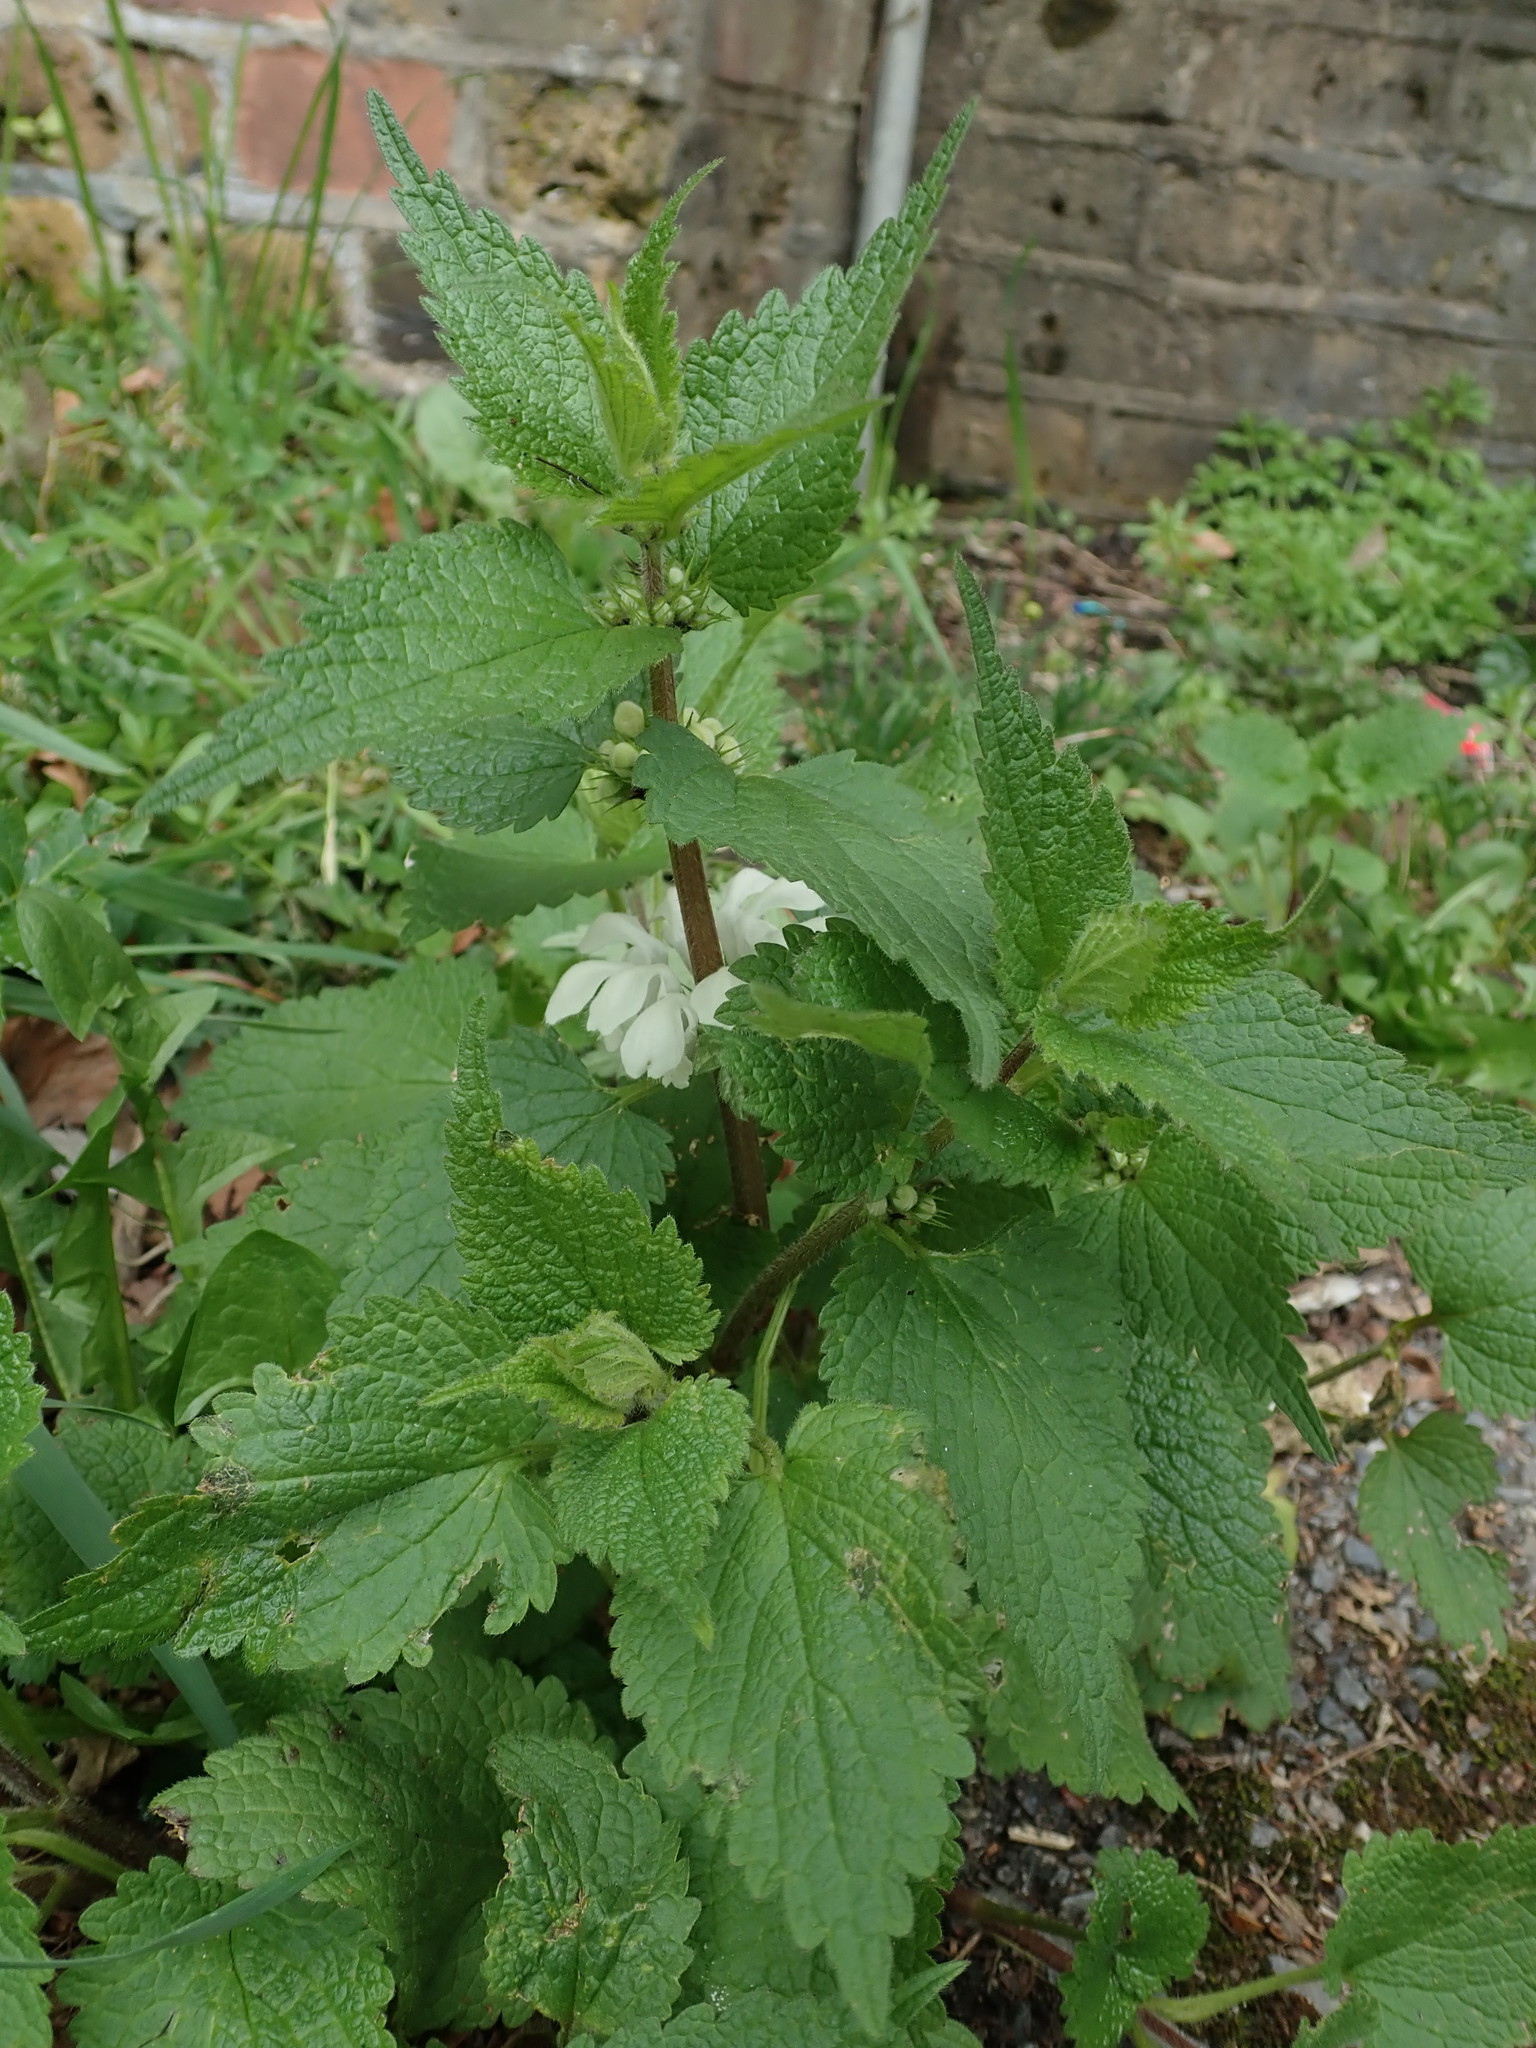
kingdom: Plantae
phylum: Tracheophyta
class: Magnoliopsida
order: Lamiales
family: Lamiaceae
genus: Lamium
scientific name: Lamium album
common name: White dead-nettle
